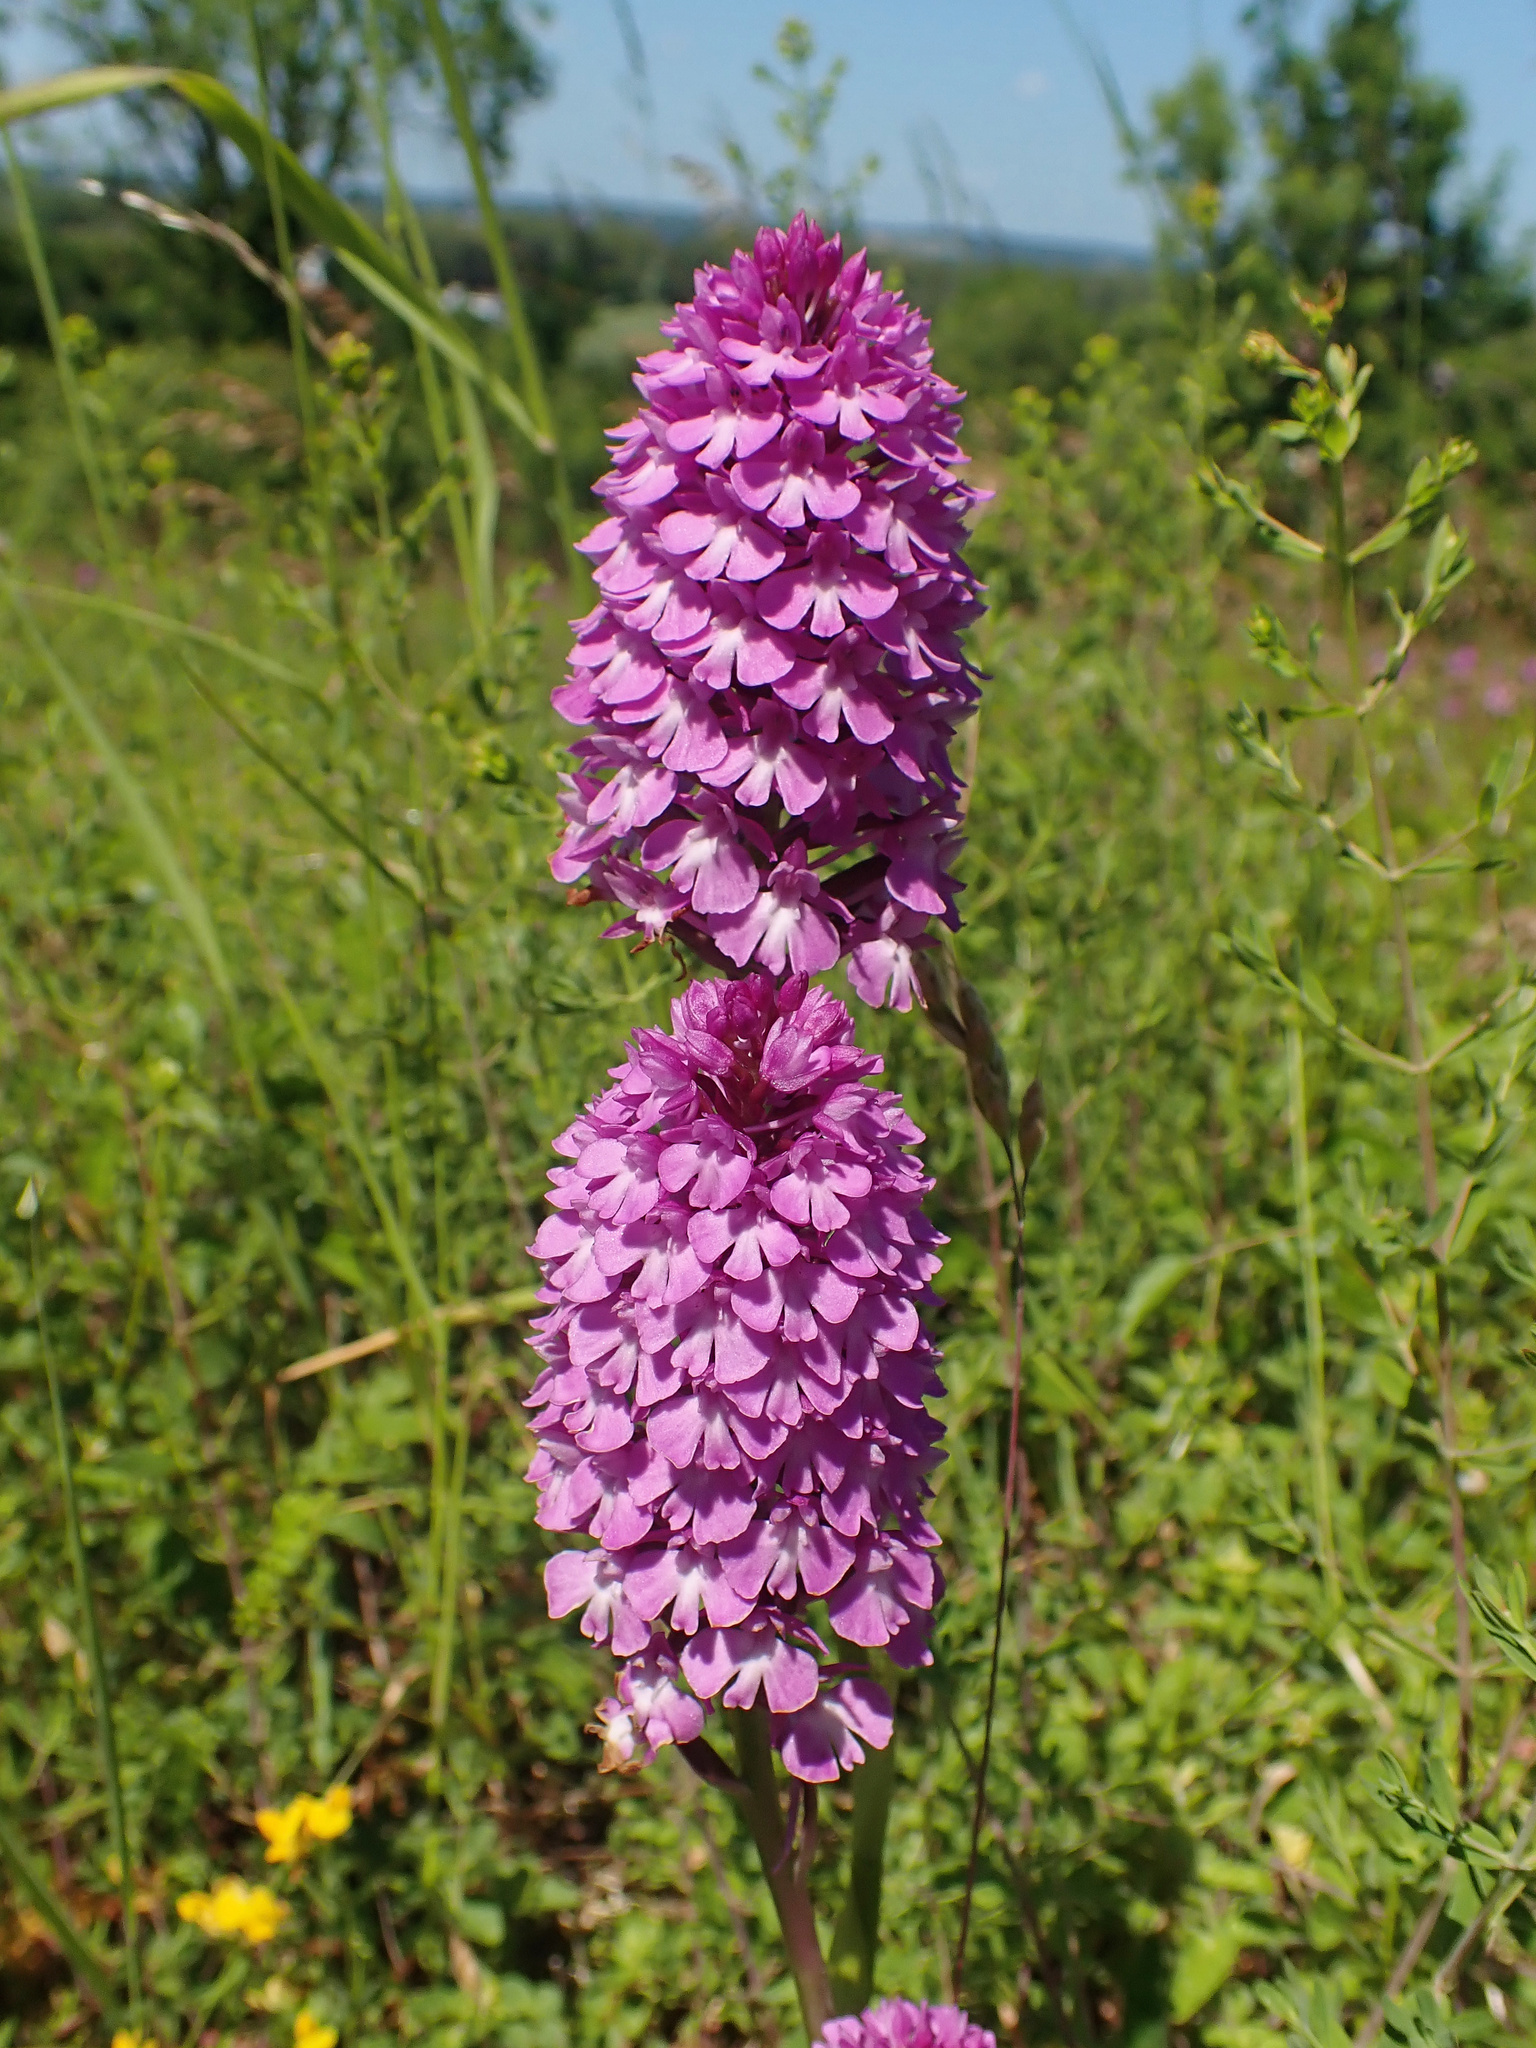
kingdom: Plantae
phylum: Tracheophyta
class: Liliopsida
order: Asparagales
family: Orchidaceae
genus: Anacamptis
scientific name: Anacamptis pyramidalis
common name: Pyramidal orchid
